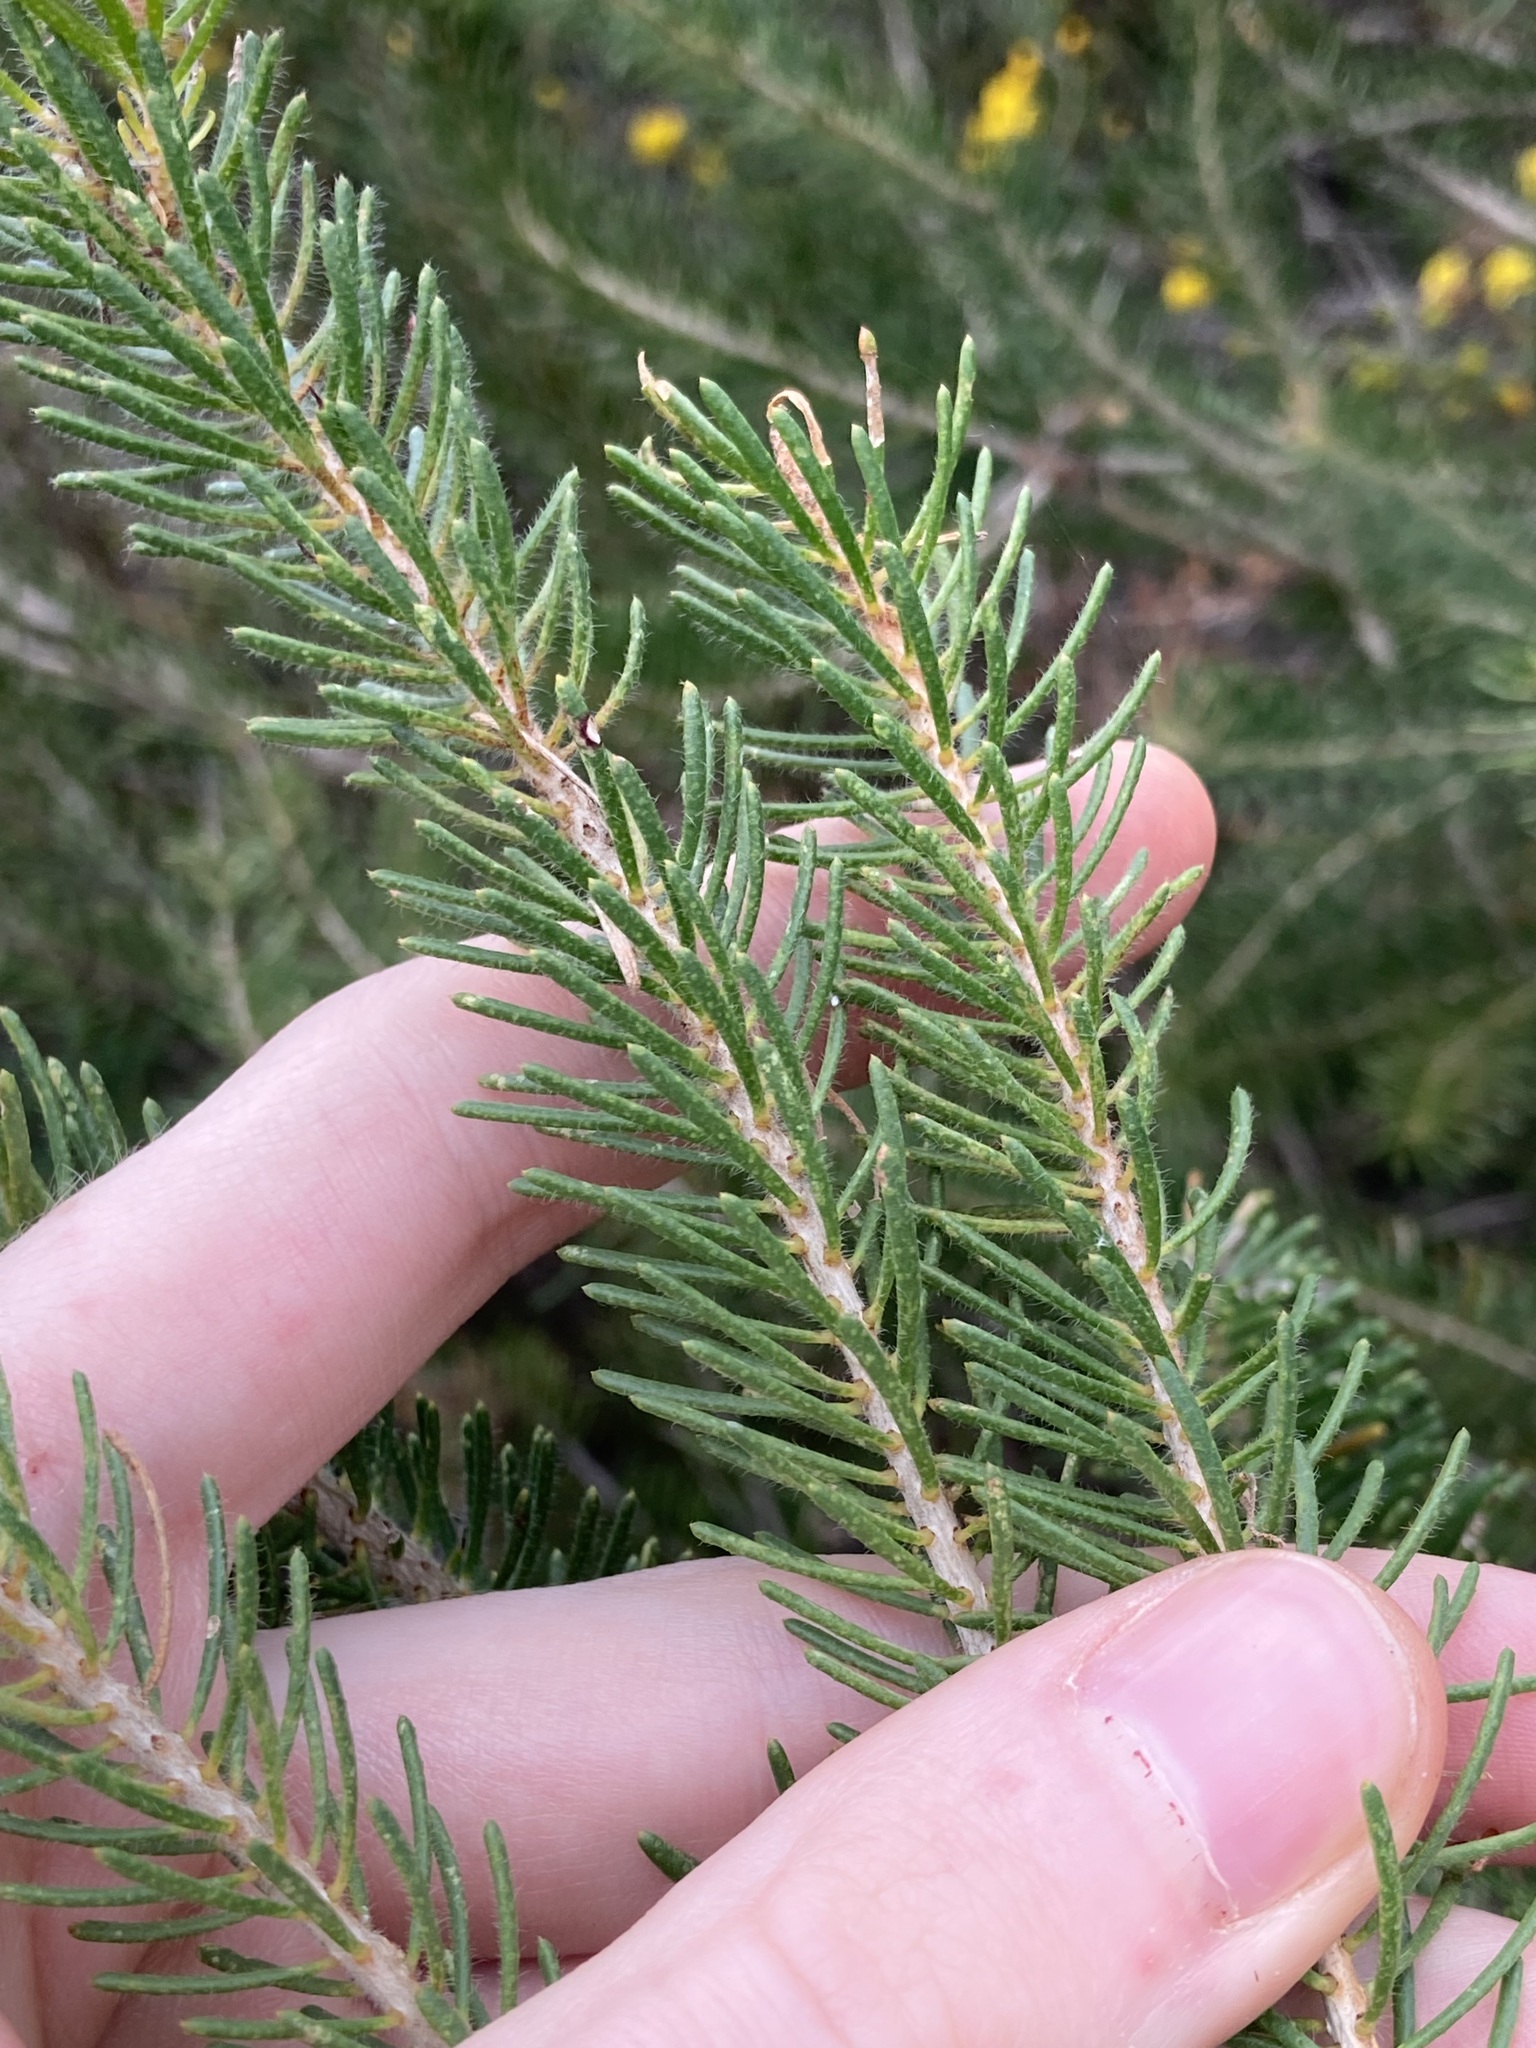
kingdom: Plantae
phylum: Tracheophyta
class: Magnoliopsida
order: Myrtales
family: Myrtaceae
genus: Melaleuca
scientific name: Melaleuca quadrifida
